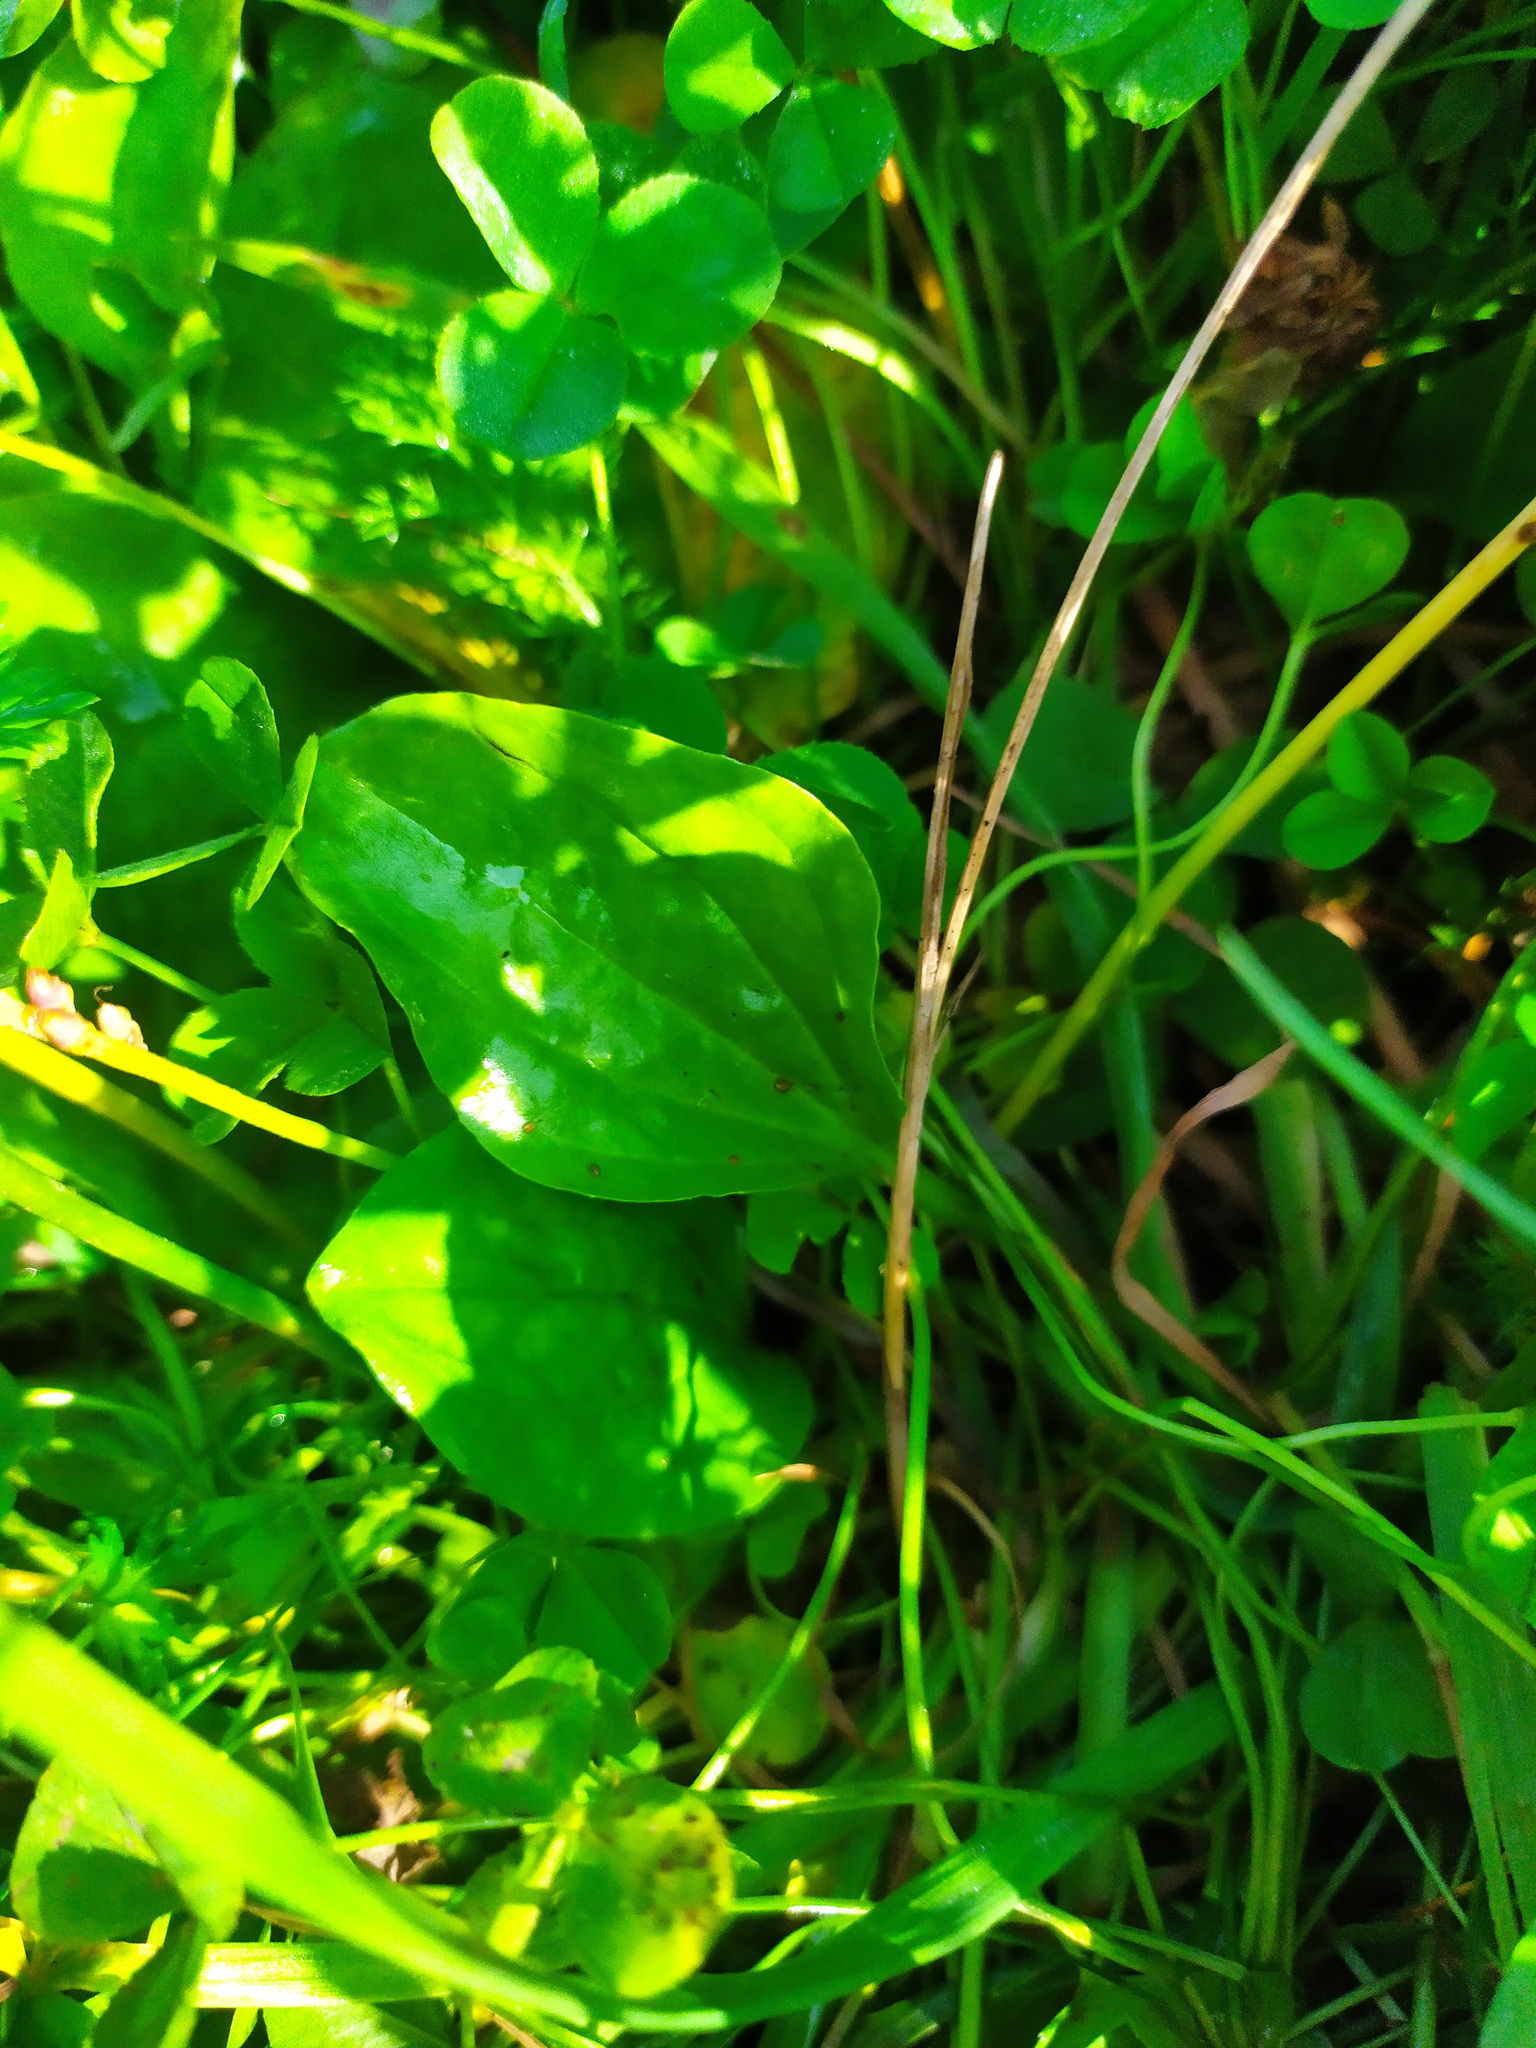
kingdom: Plantae
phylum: Tracheophyta
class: Magnoliopsida
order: Lamiales
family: Plantaginaceae
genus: Plantago
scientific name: Plantago major
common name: Common plantain
